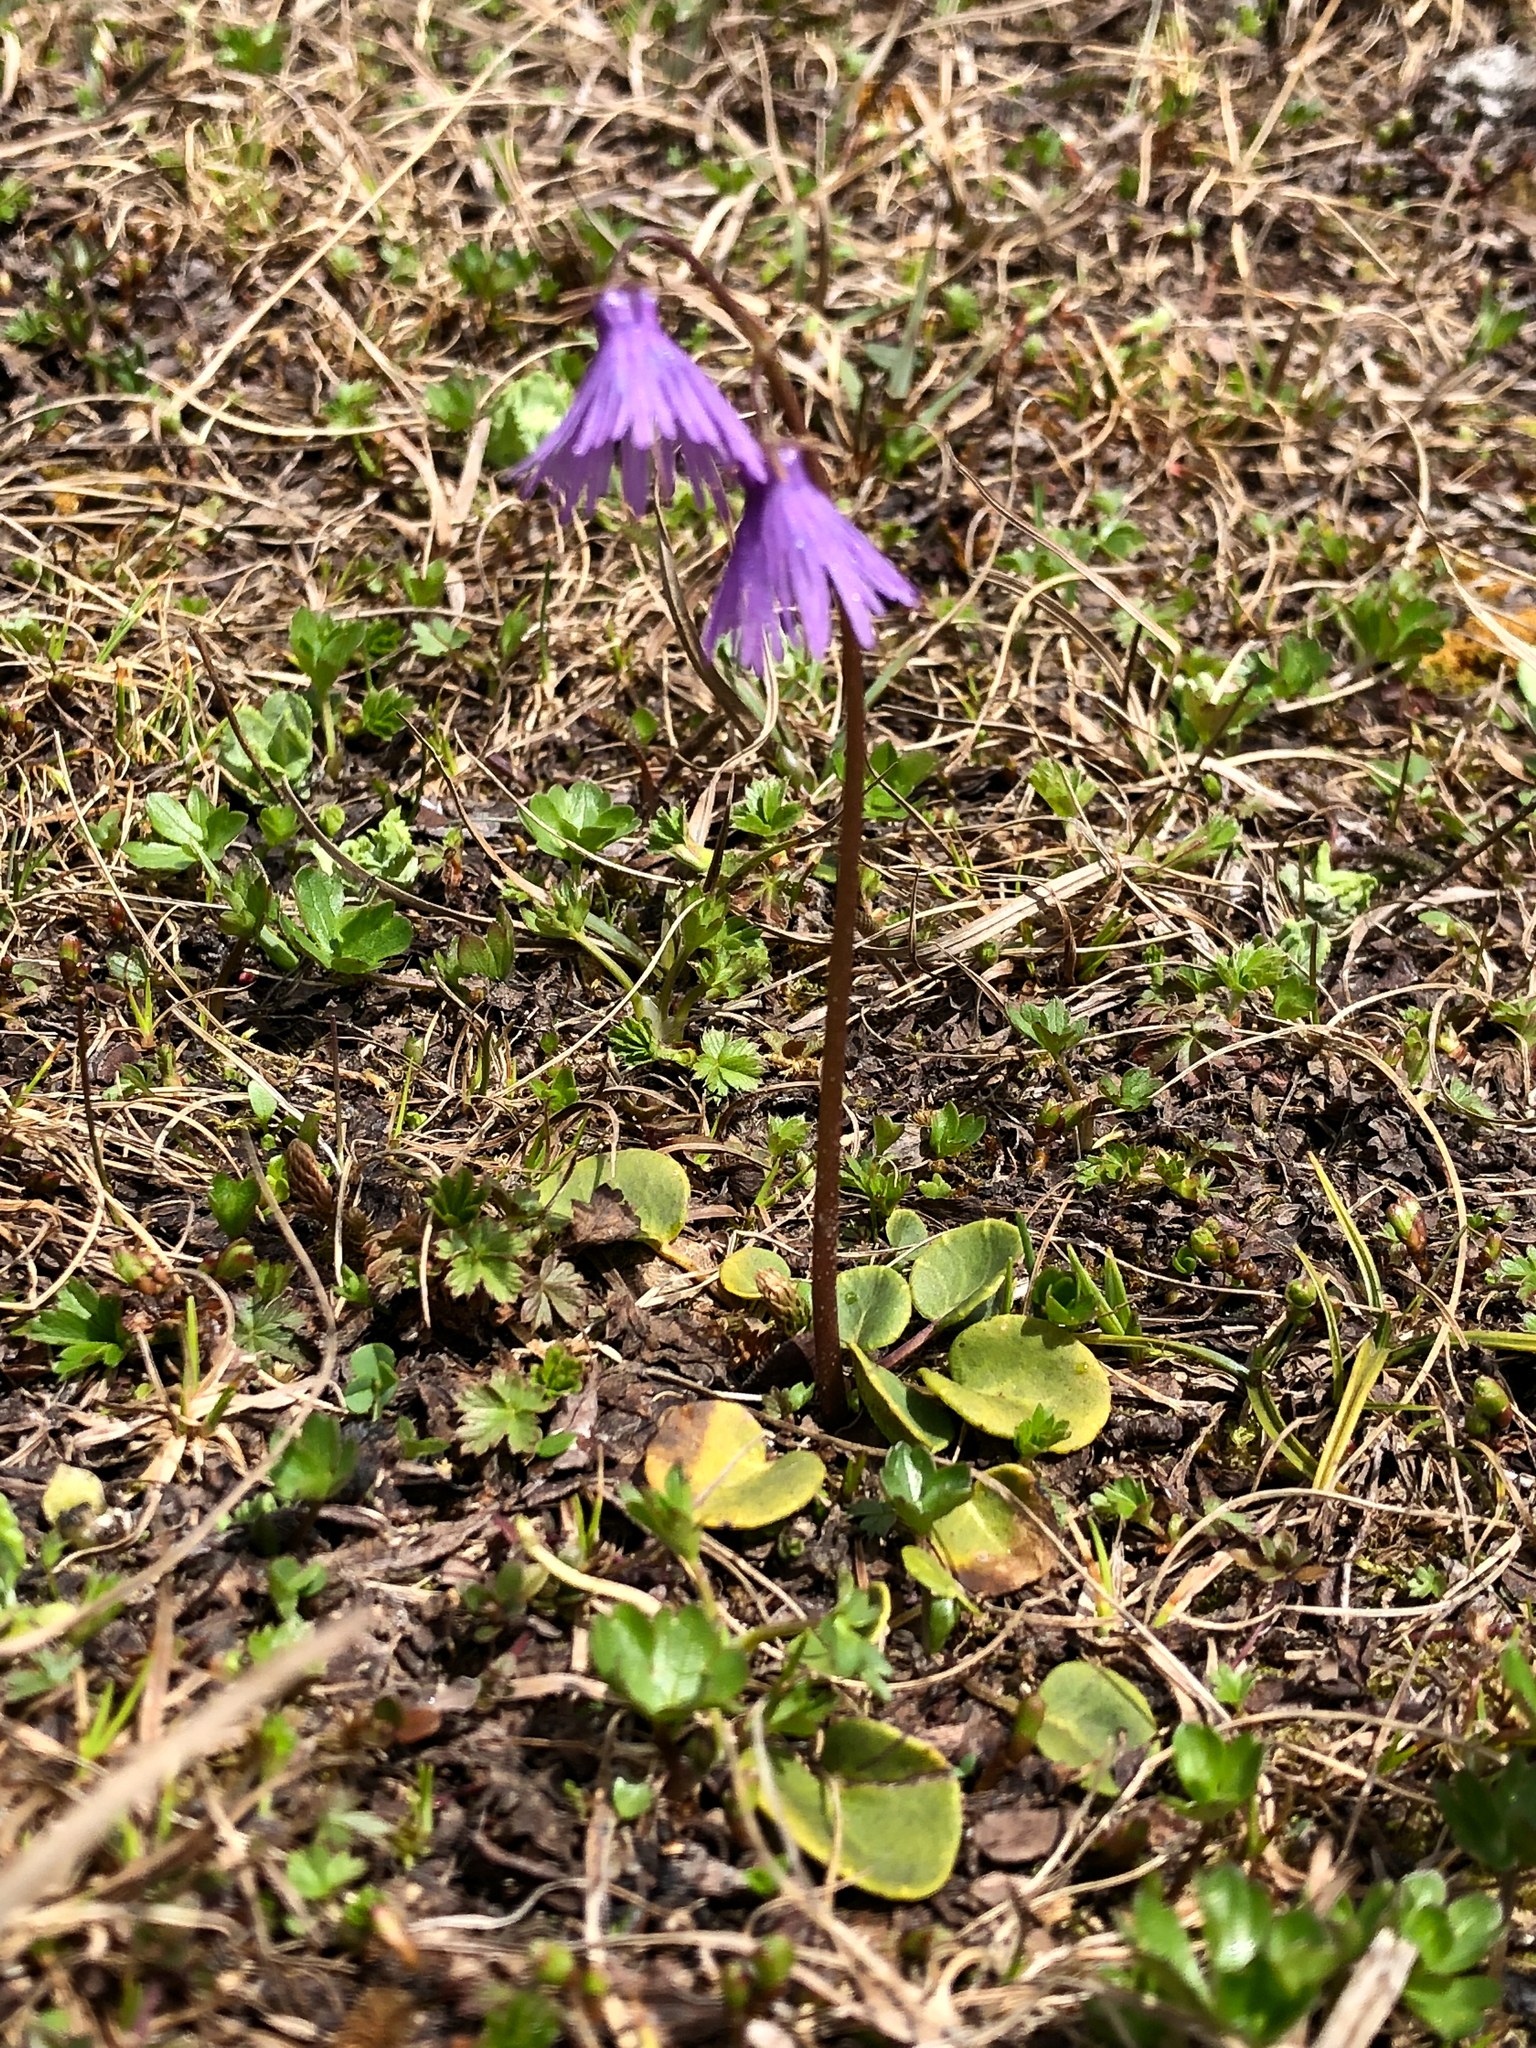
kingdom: Plantae
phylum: Tracheophyta
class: Magnoliopsida
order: Ericales
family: Primulaceae
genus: Soldanella
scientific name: Soldanella alpina
